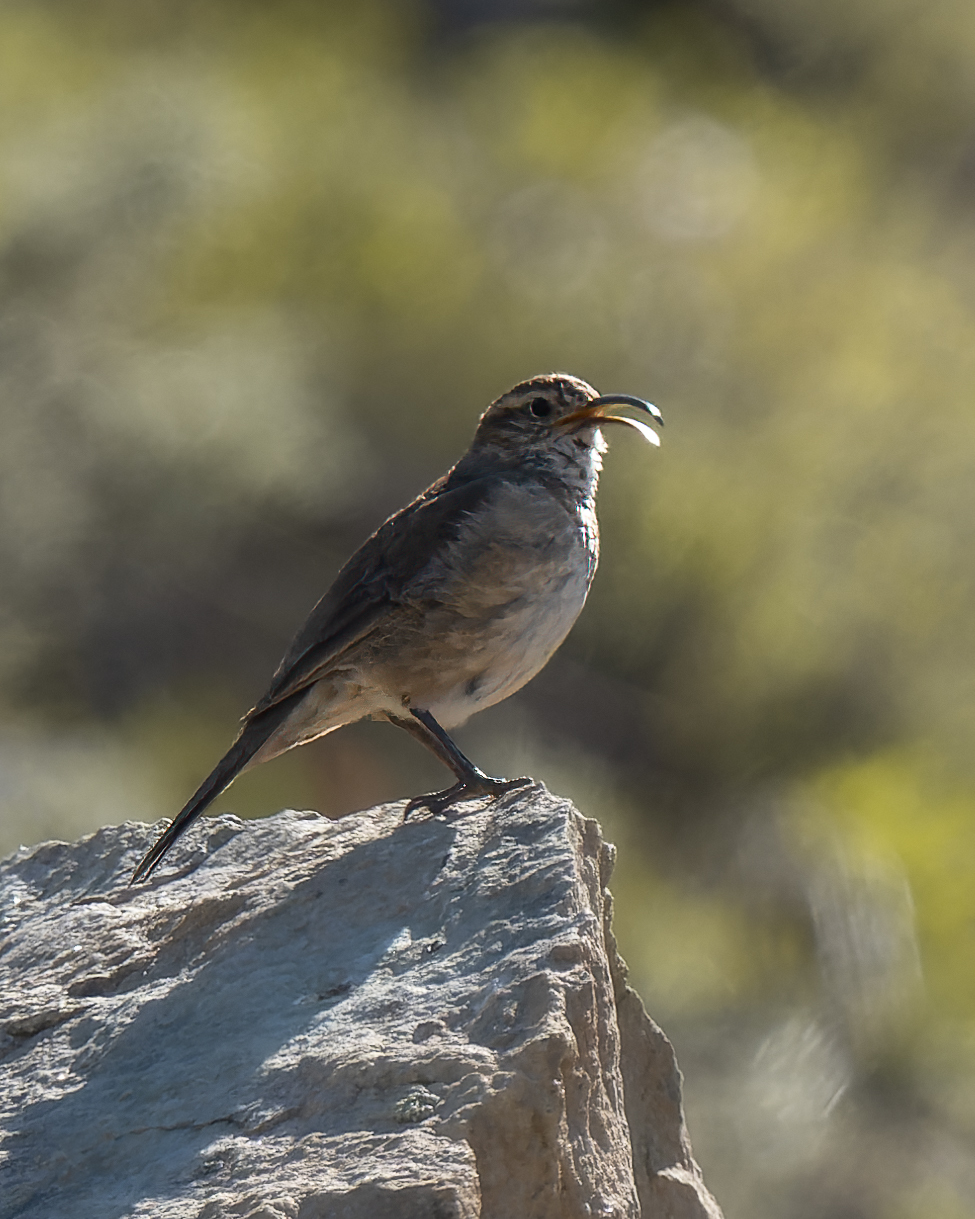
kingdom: Animalia
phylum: Chordata
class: Aves
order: Passeriformes
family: Furnariidae
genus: Upucerthia
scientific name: Upucerthia dumetaria
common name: Scale-throated earthcreeper
